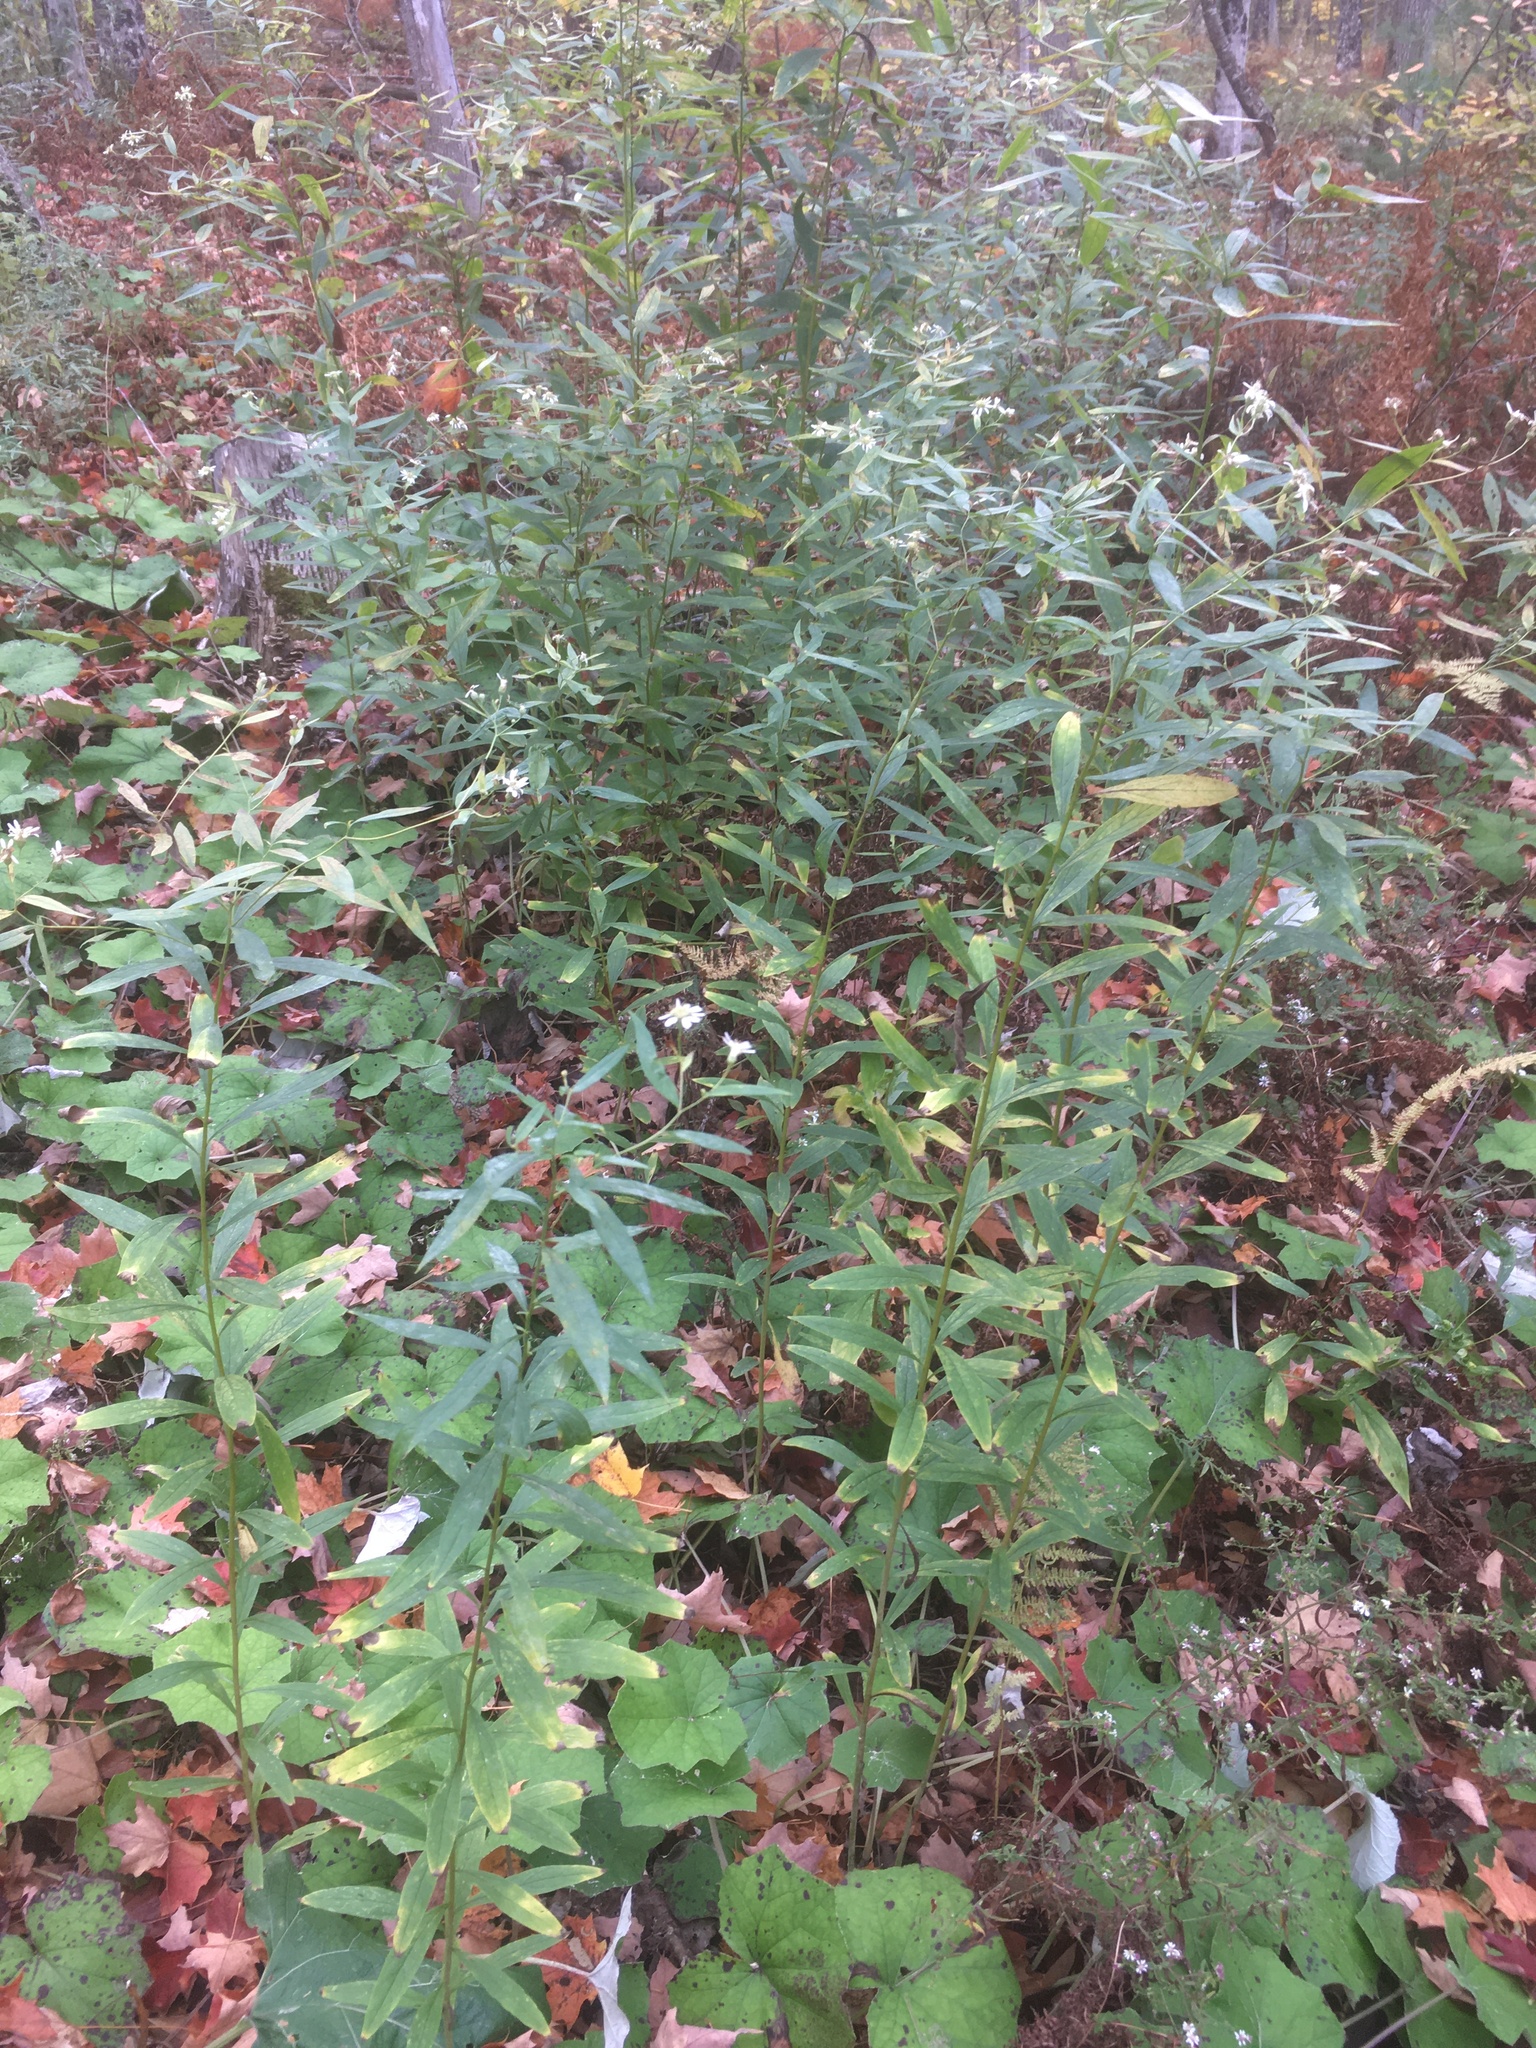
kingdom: Plantae
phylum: Tracheophyta
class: Magnoliopsida
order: Asterales
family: Asteraceae
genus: Doellingeria
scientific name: Doellingeria umbellata
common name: Flat-top white aster
